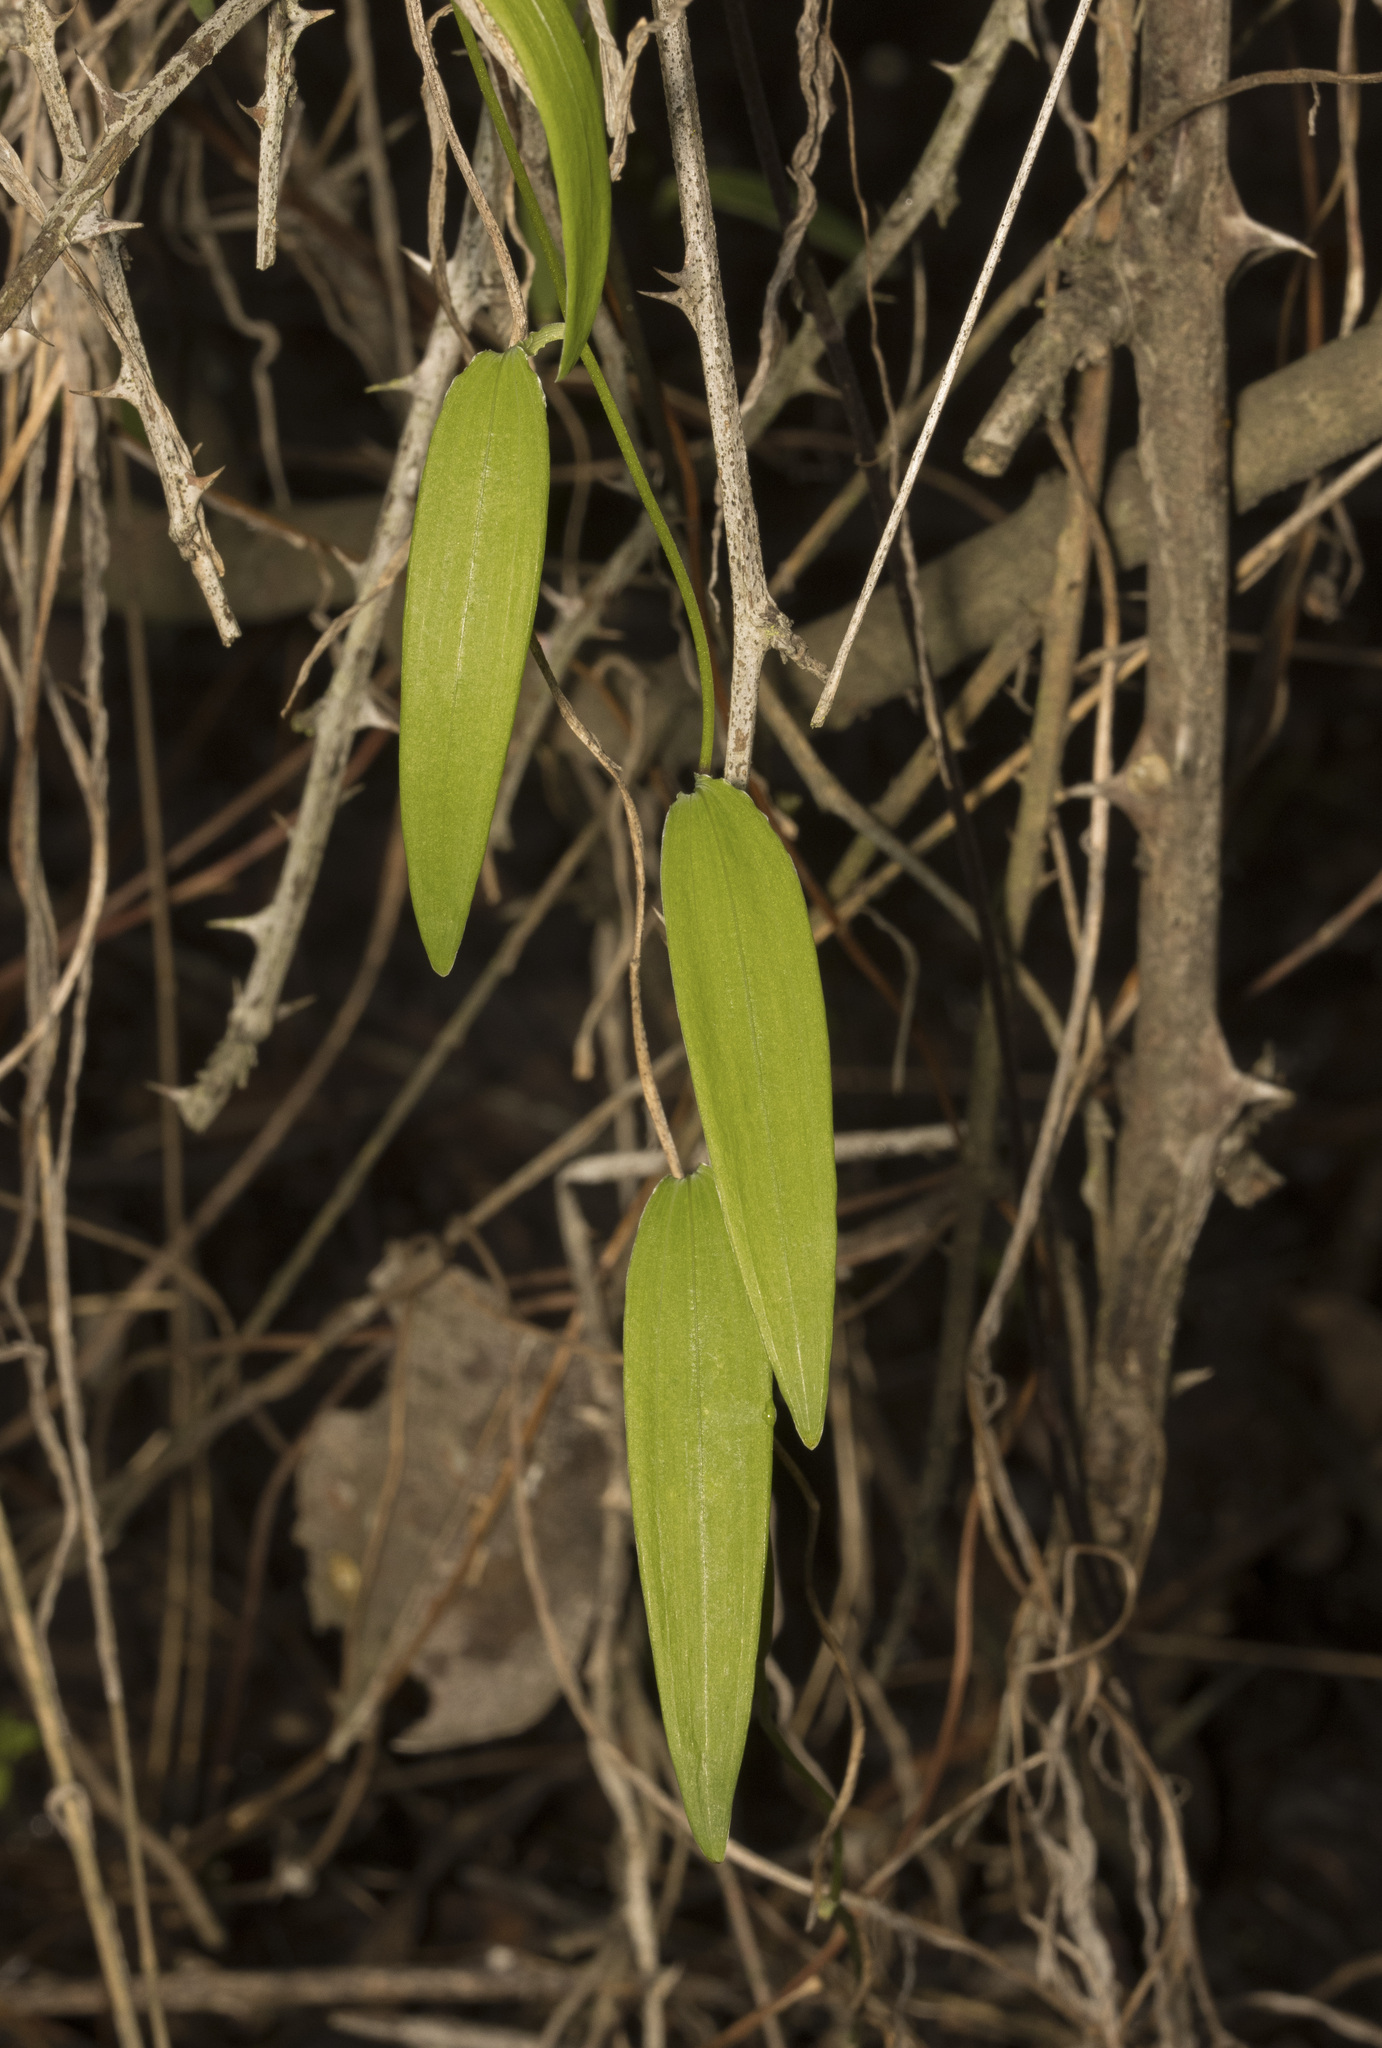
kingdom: Plantae
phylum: Tracheophyta
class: Liliopsida
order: Liliales
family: Alstroemeriaceae
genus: Bomarea
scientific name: Bomarea salsilla
